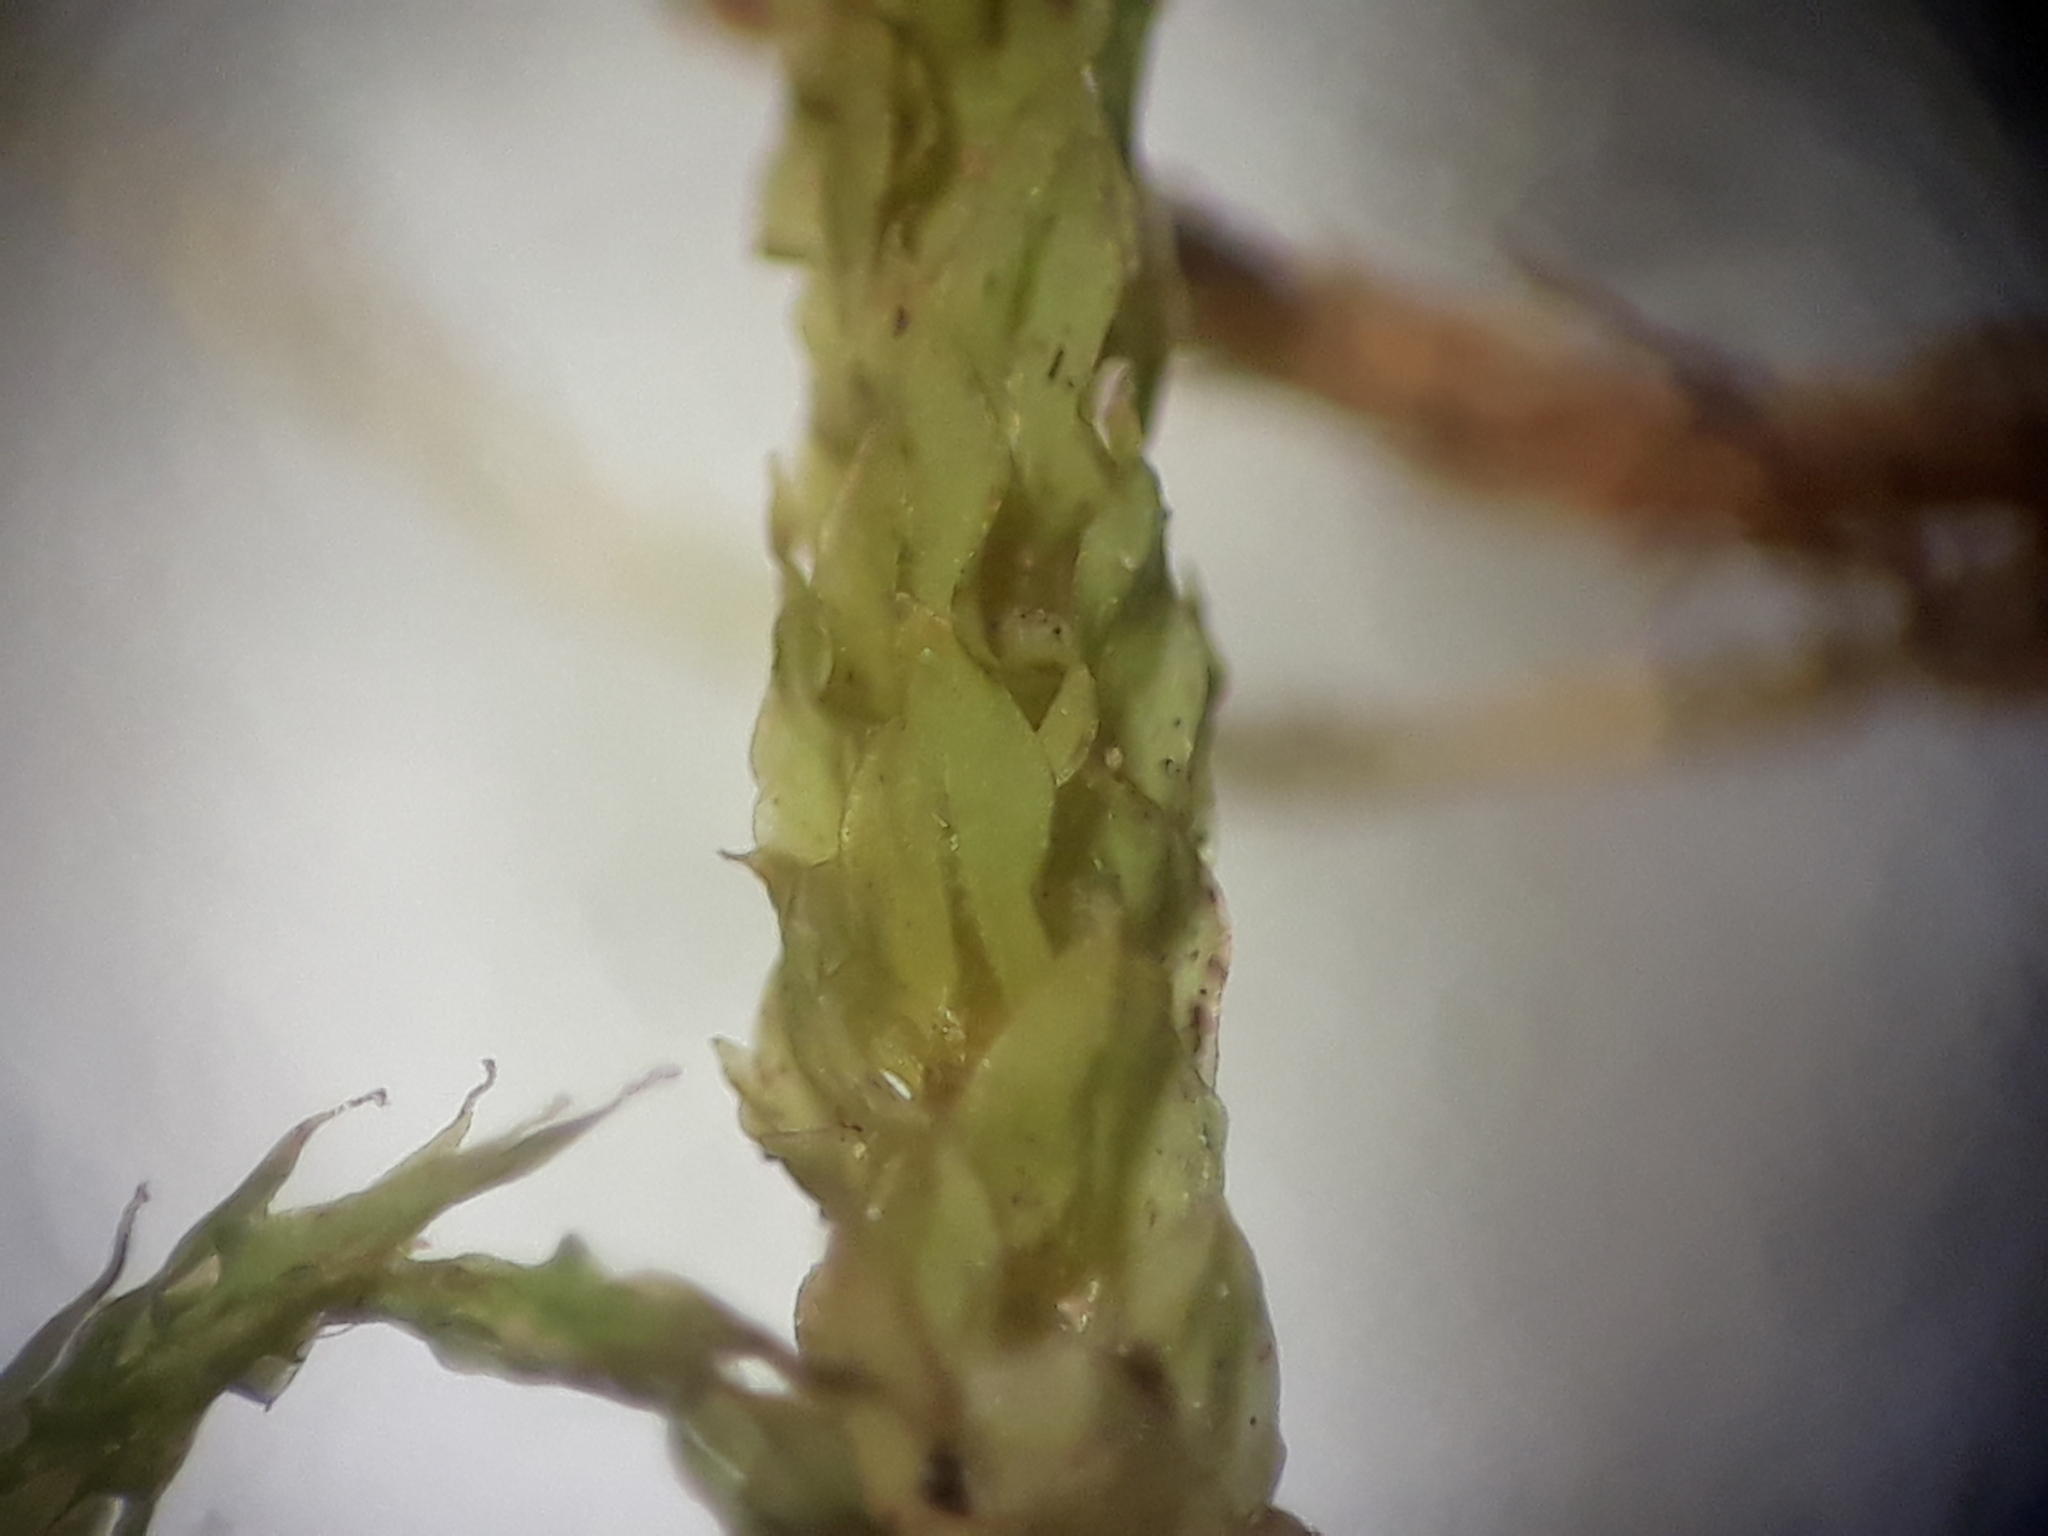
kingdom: Plantae
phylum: Bryophyta
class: Bryopsida
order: Hypnales
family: Meteoriaceae
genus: Papillaria
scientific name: Papillaria flavolimbata
